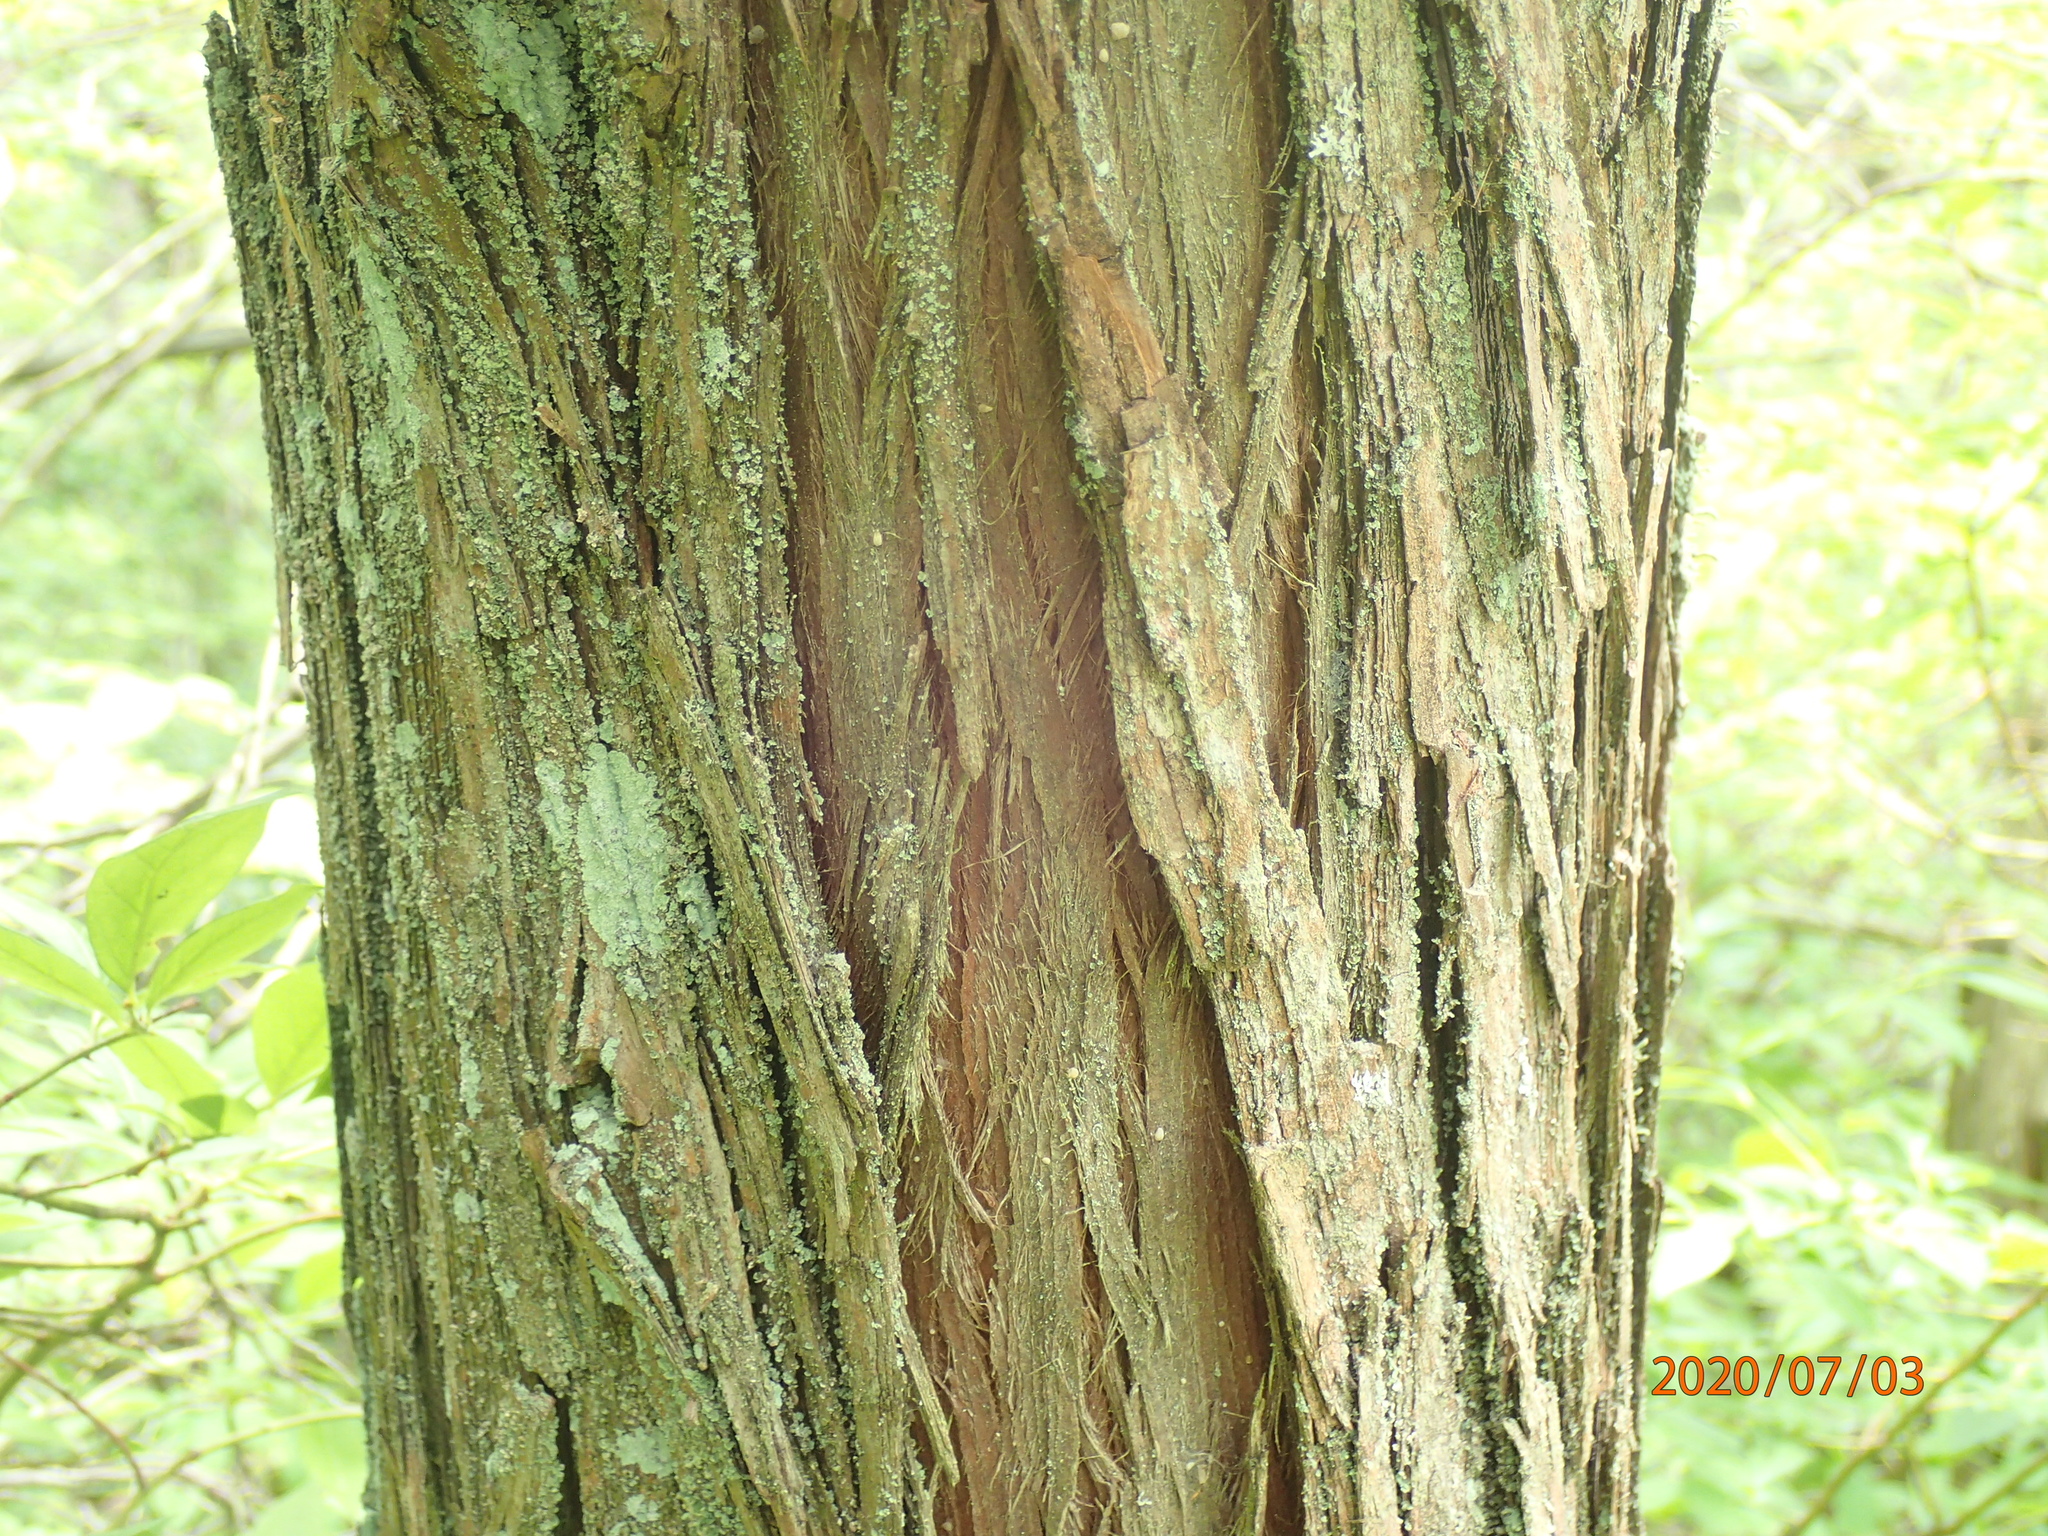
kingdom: Plantae
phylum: Tracheophyta
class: Pinopsida
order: Pinales
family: Cupressaceae
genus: Chamaecyparis
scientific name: Chamaecyparis thyoides
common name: Atlantic white cedar
